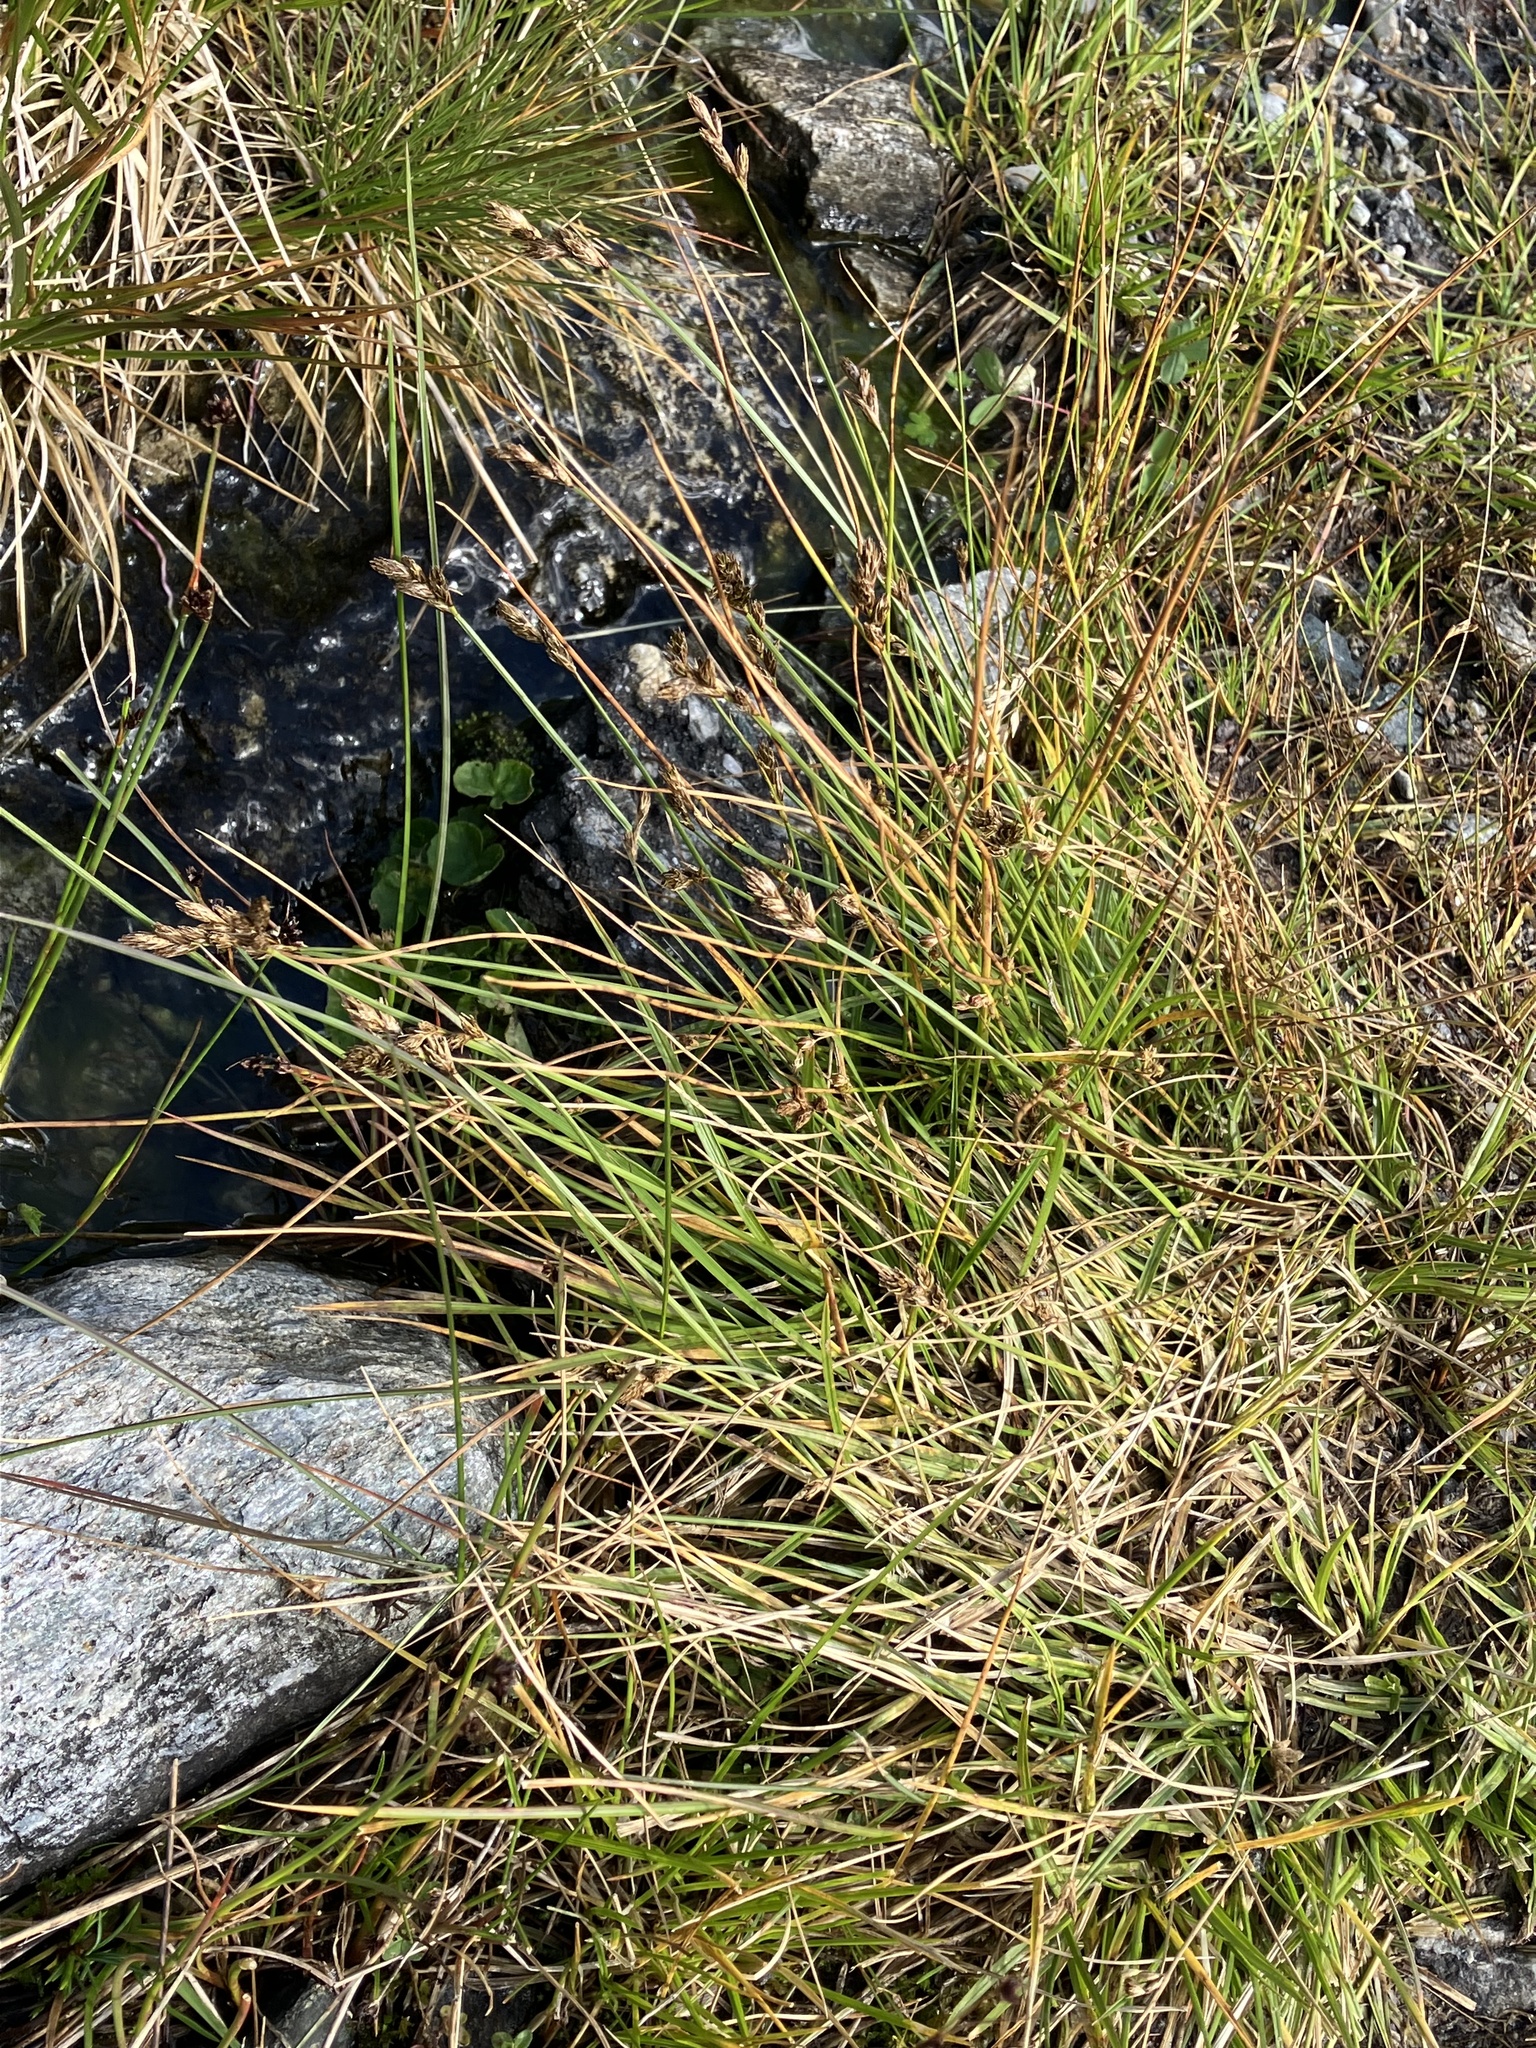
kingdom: Plantae
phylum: Tracheophyta
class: Liliopsida
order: Poales
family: Cyperaceae
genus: Carex
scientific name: Carex leporina
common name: Oval sedge
